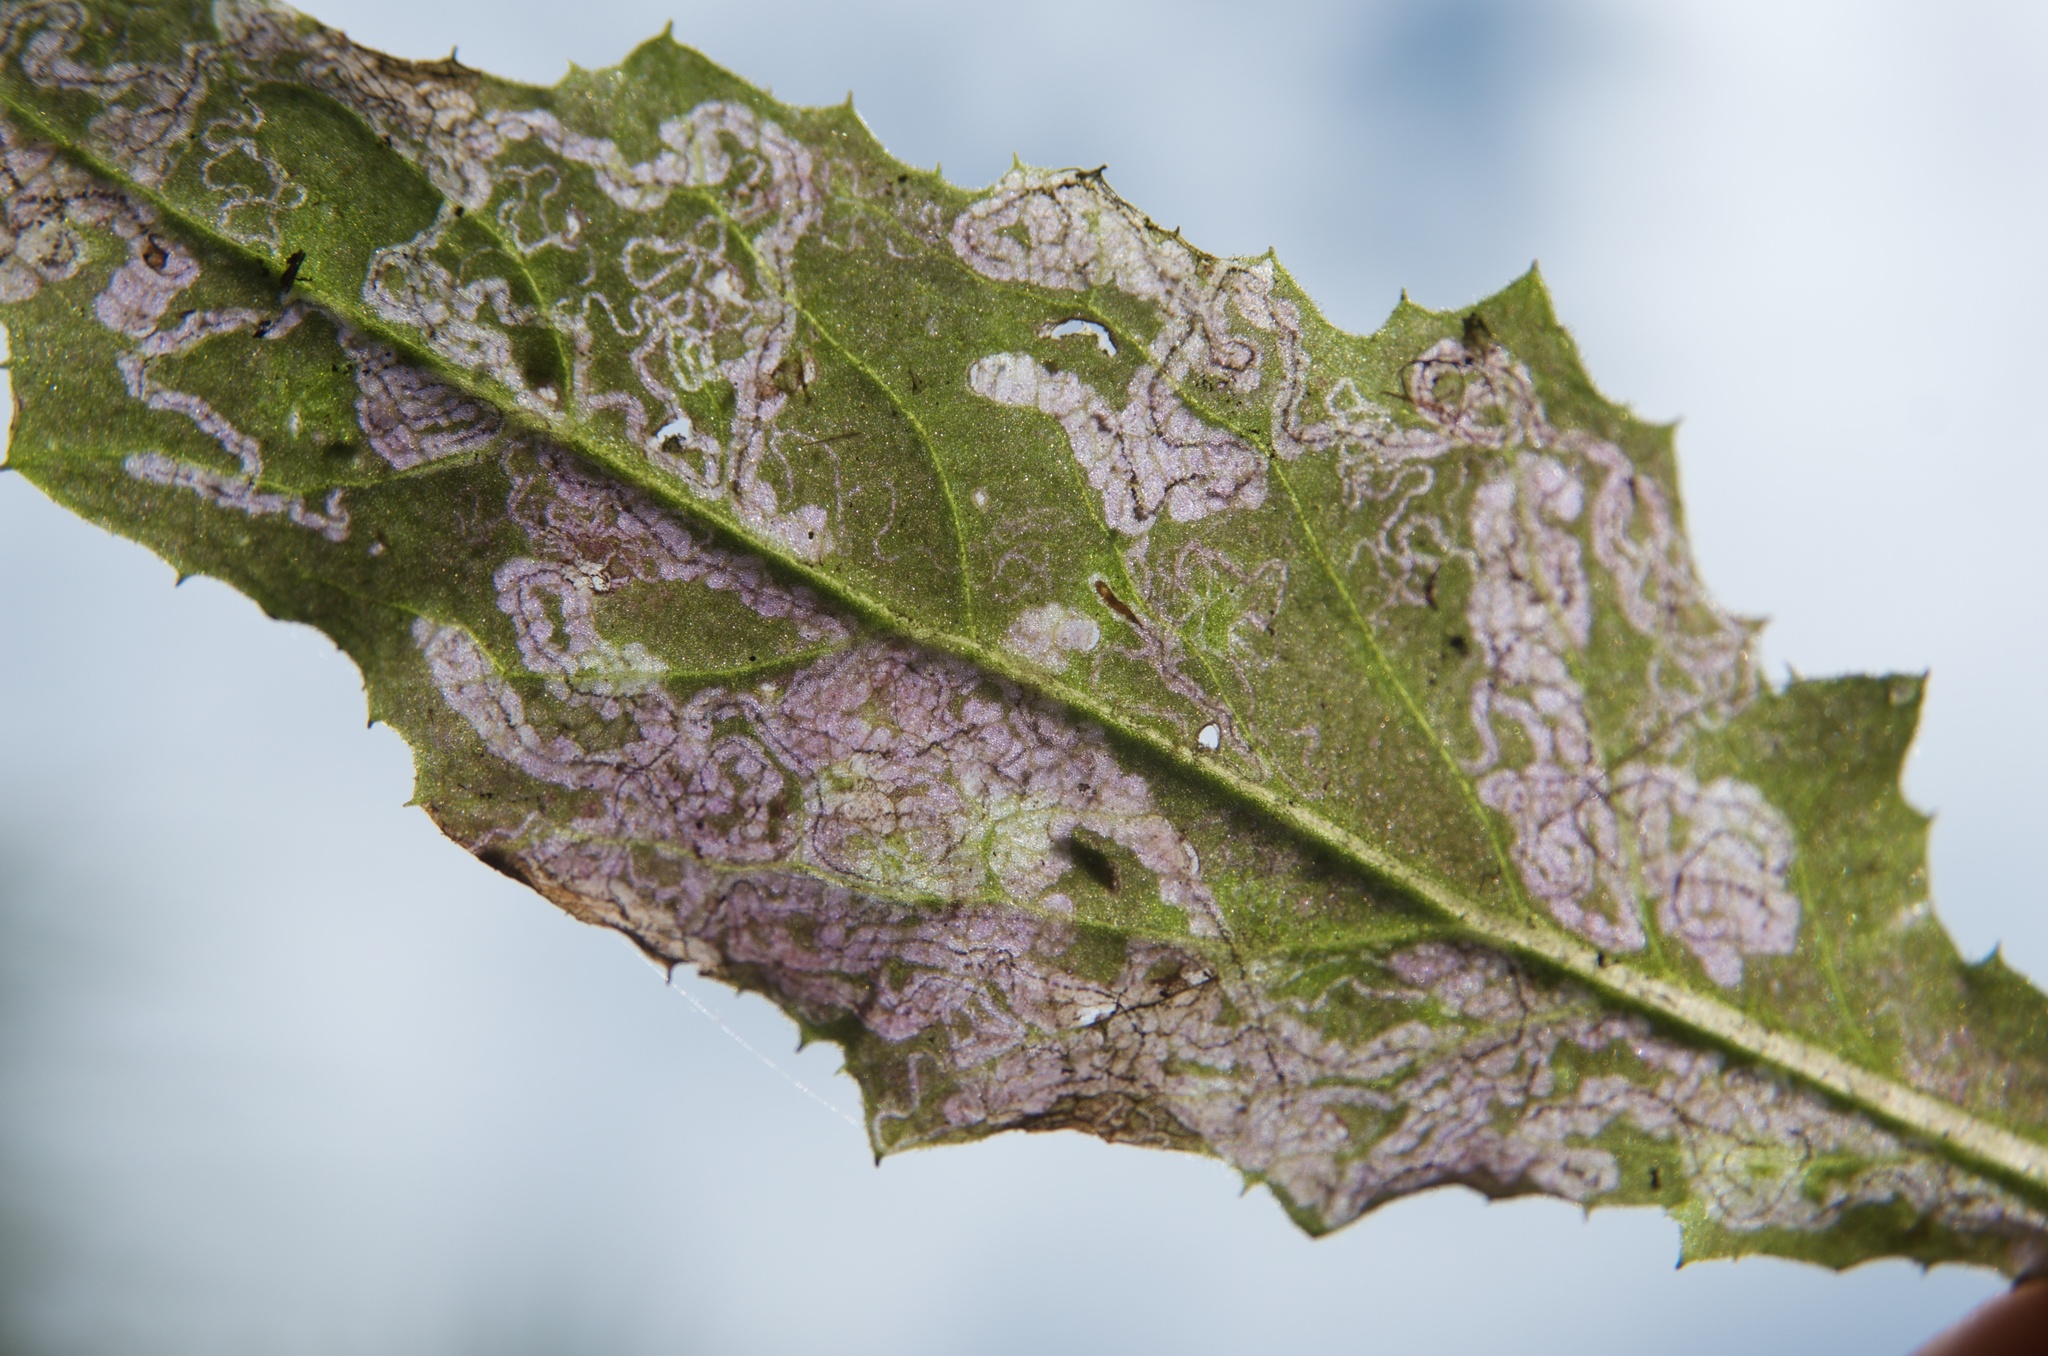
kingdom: Animalia
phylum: Arthropoda
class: Insecta
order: Lepidoptera
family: Nepticulidae
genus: Stigmella
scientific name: Stigmella ogygia
